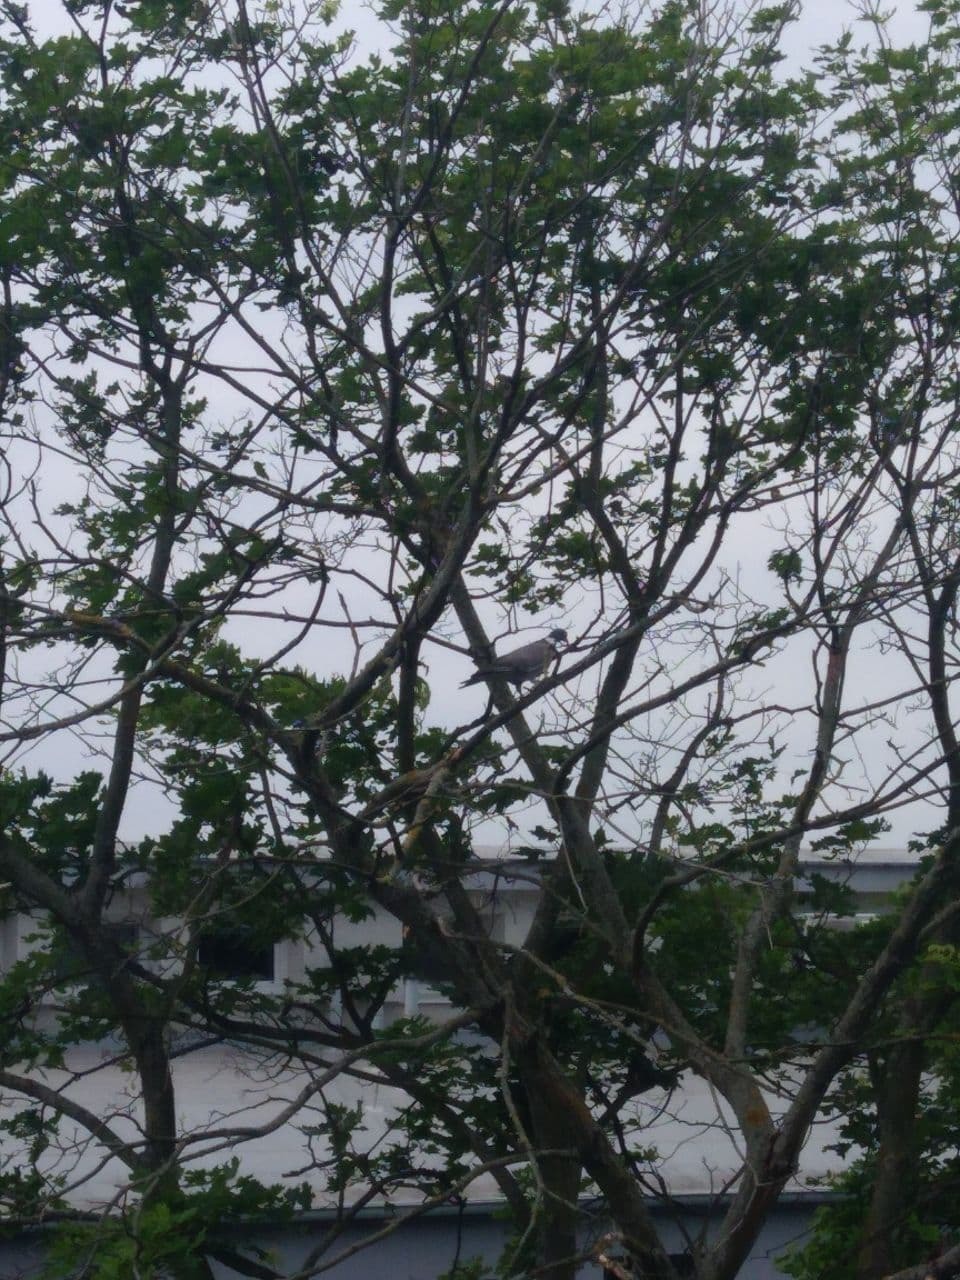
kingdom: Animalia
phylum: Chordata
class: Aves
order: Columbiformes
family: Columbidae
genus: Columba
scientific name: Columba palumbus
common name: Common wood pigeon
